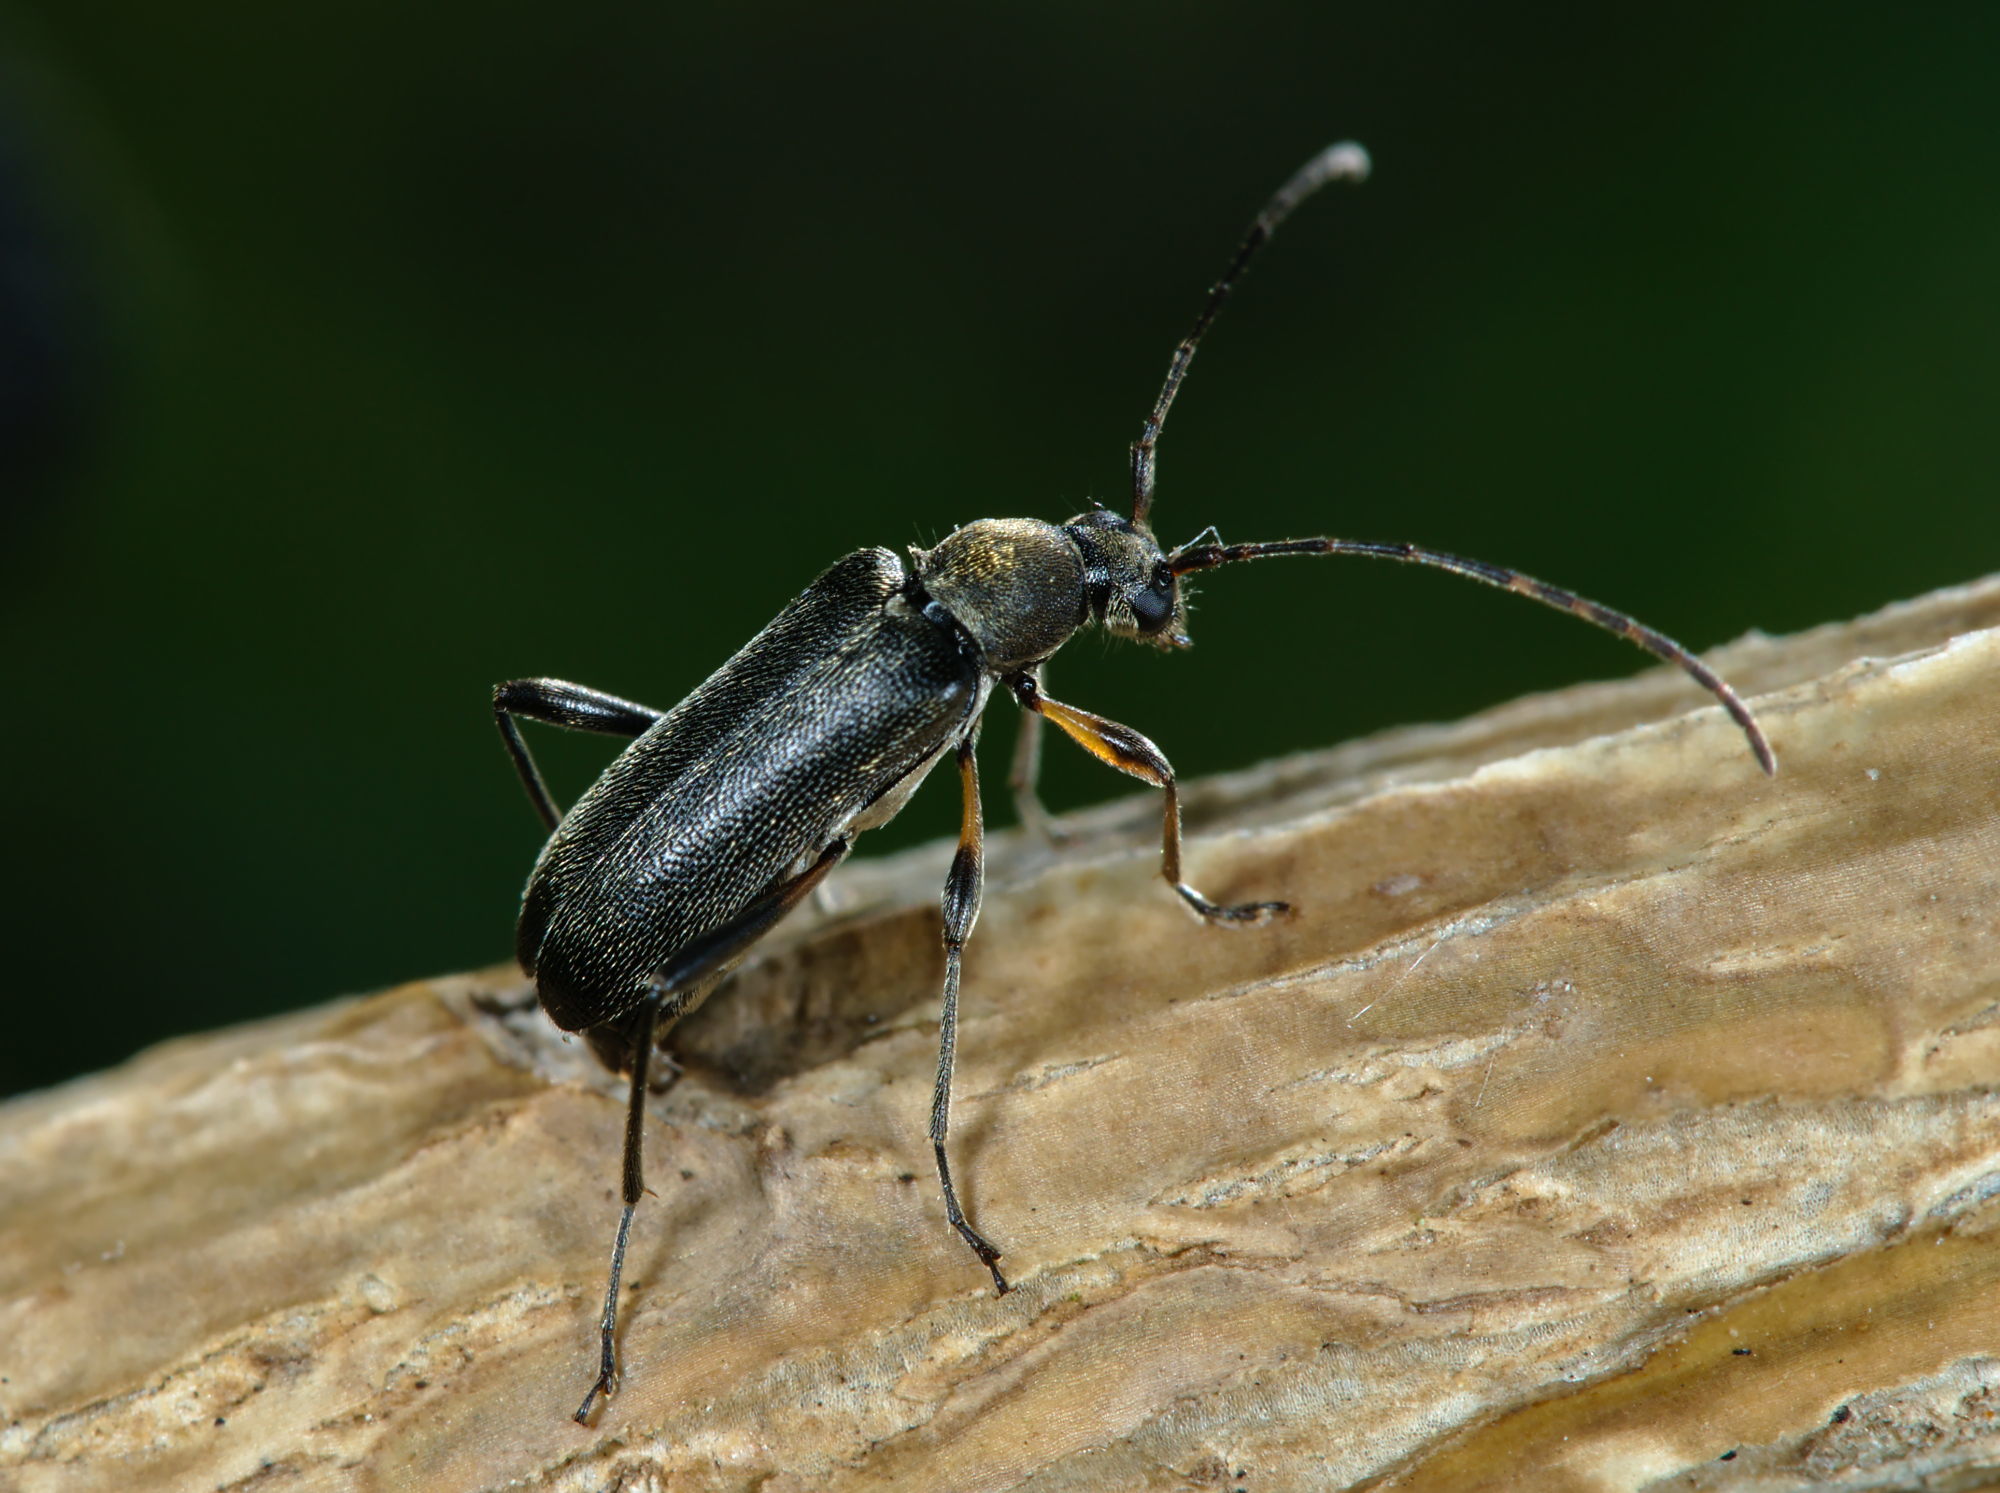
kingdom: Animalia
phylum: Arthropoda
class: Insecta
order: Coleoptera
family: Cerambycidae
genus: Grammoptera
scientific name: Grammoptera ruficornis
